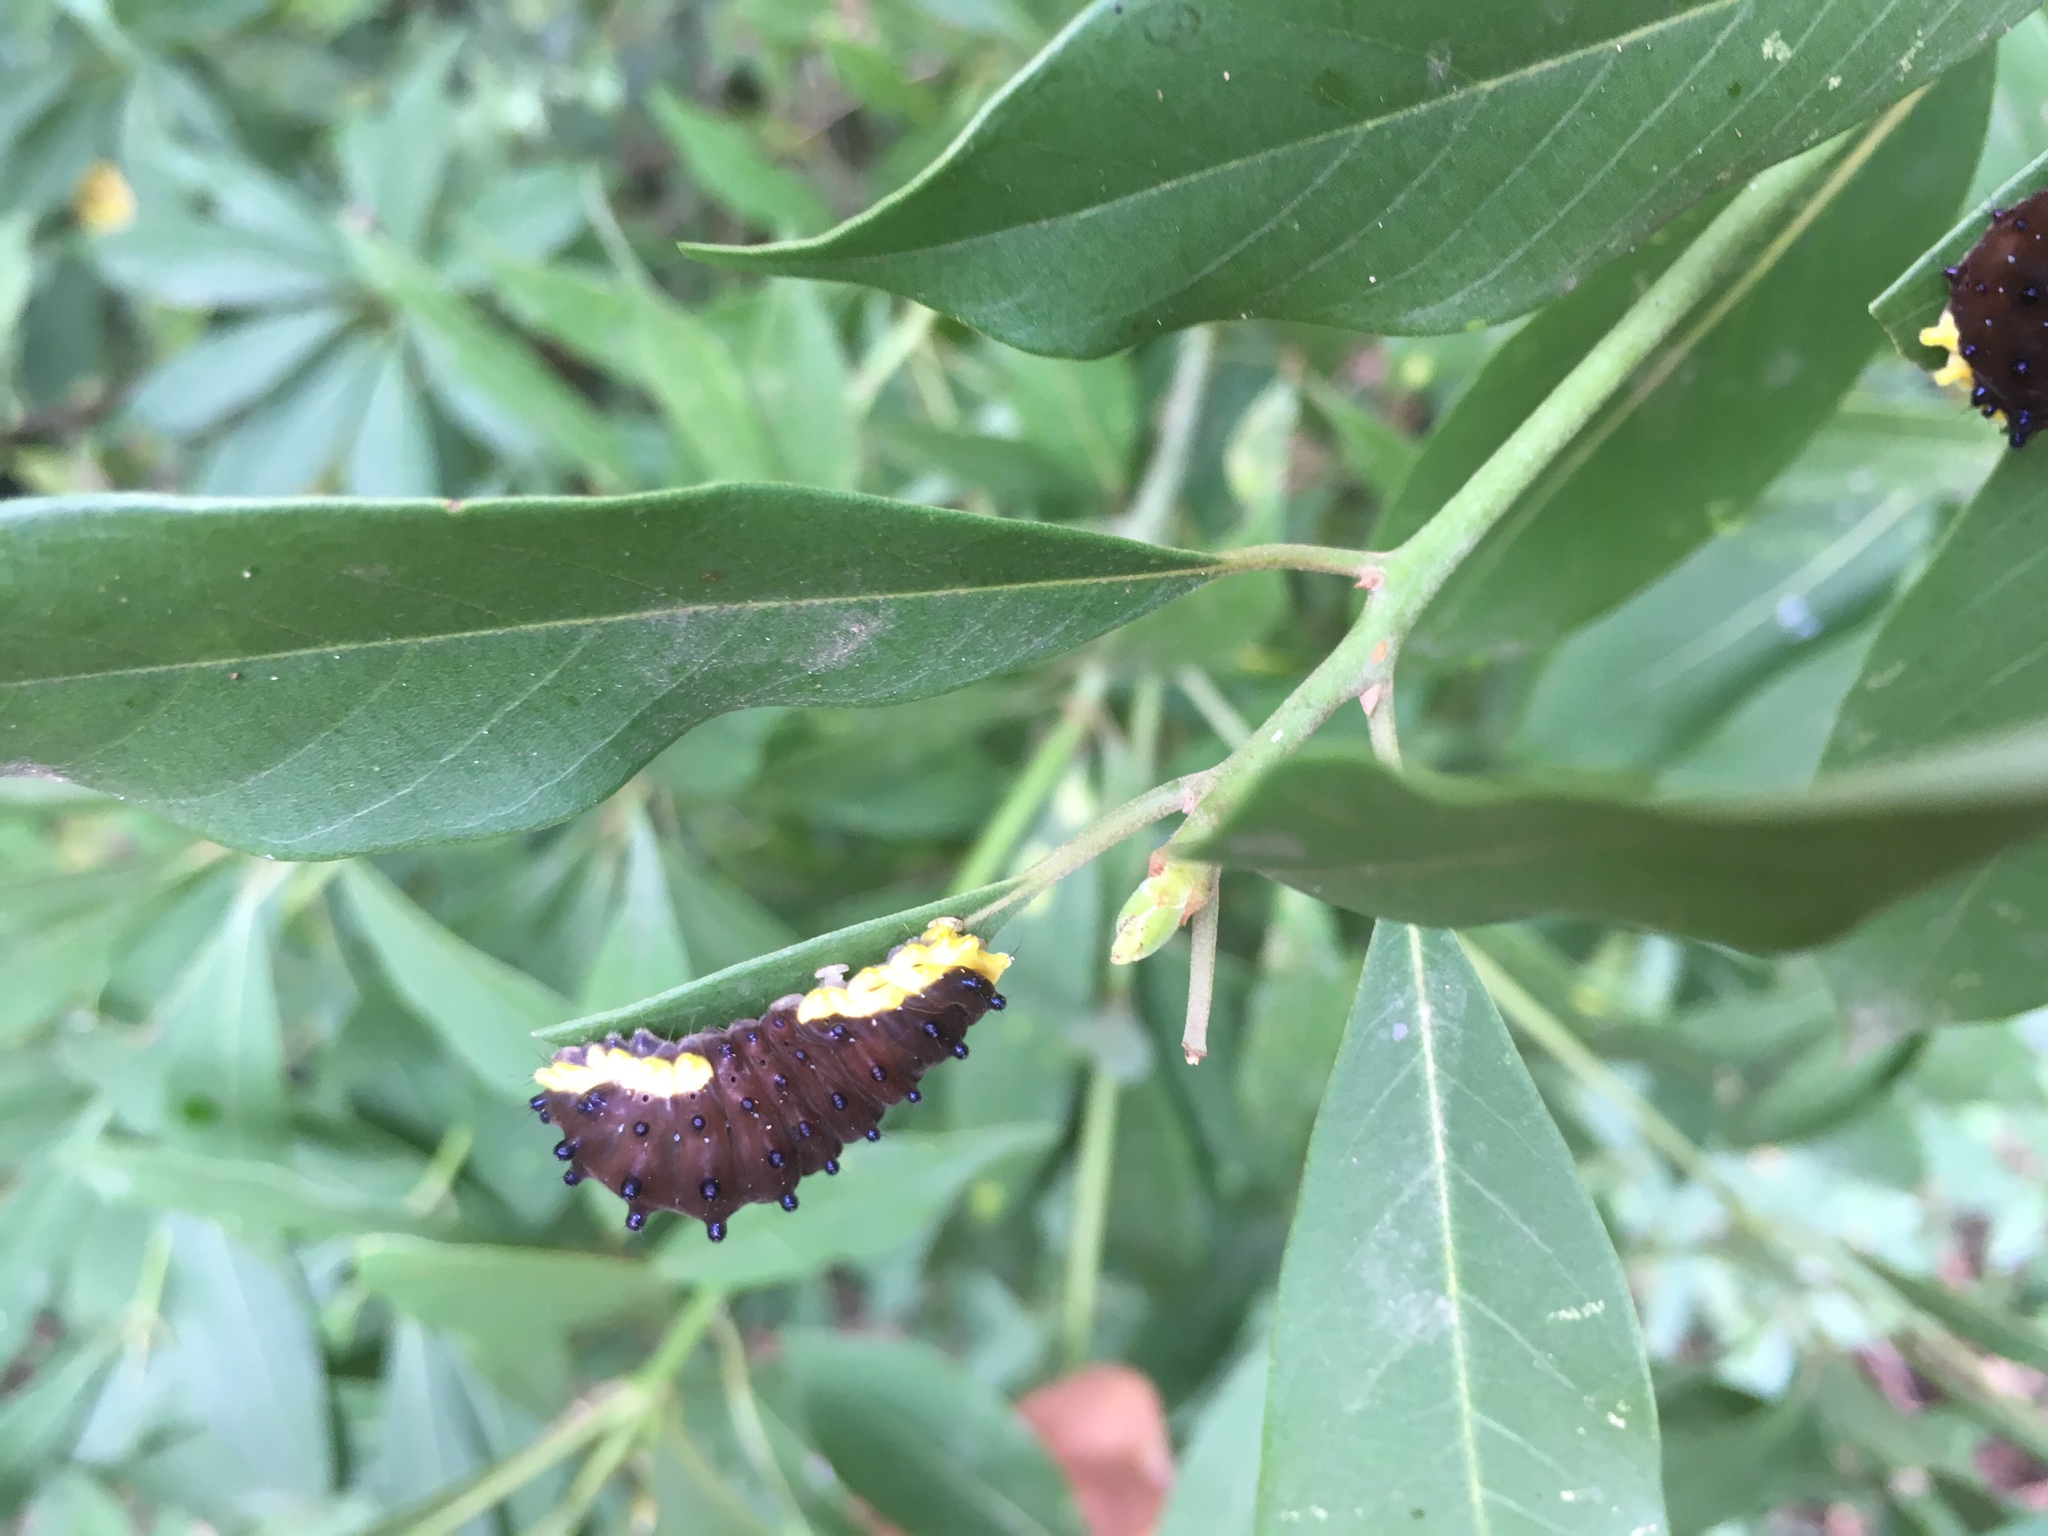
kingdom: Animalia
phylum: Arthropoda
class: Insecta
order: Lepidoptera
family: Zygaenidae
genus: Gynautocera
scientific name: Gynautocera rubriscutellata
